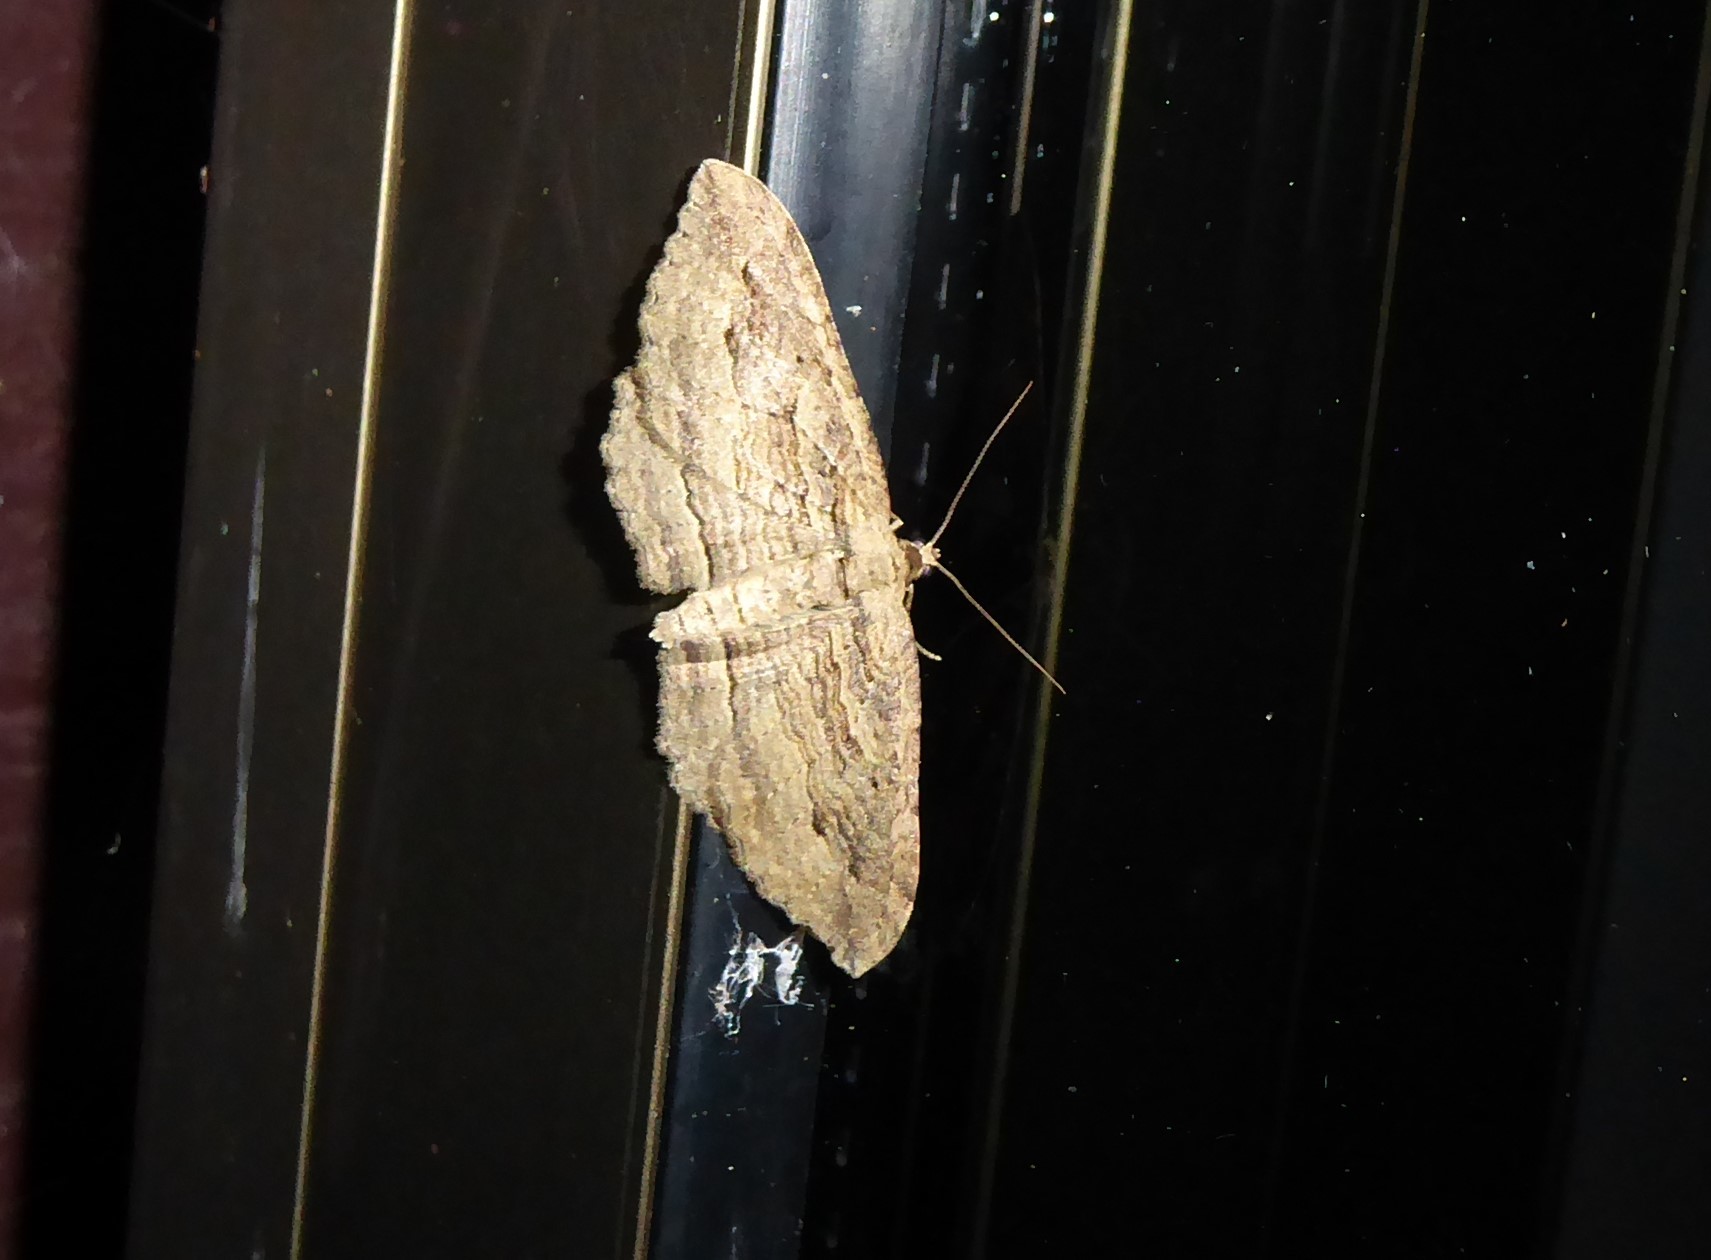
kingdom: Animalia
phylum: Arthropoda
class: Insecta
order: Lepidoptera
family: Geometridae
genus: Austrocidaria
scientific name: Austrocidaria gobiata
